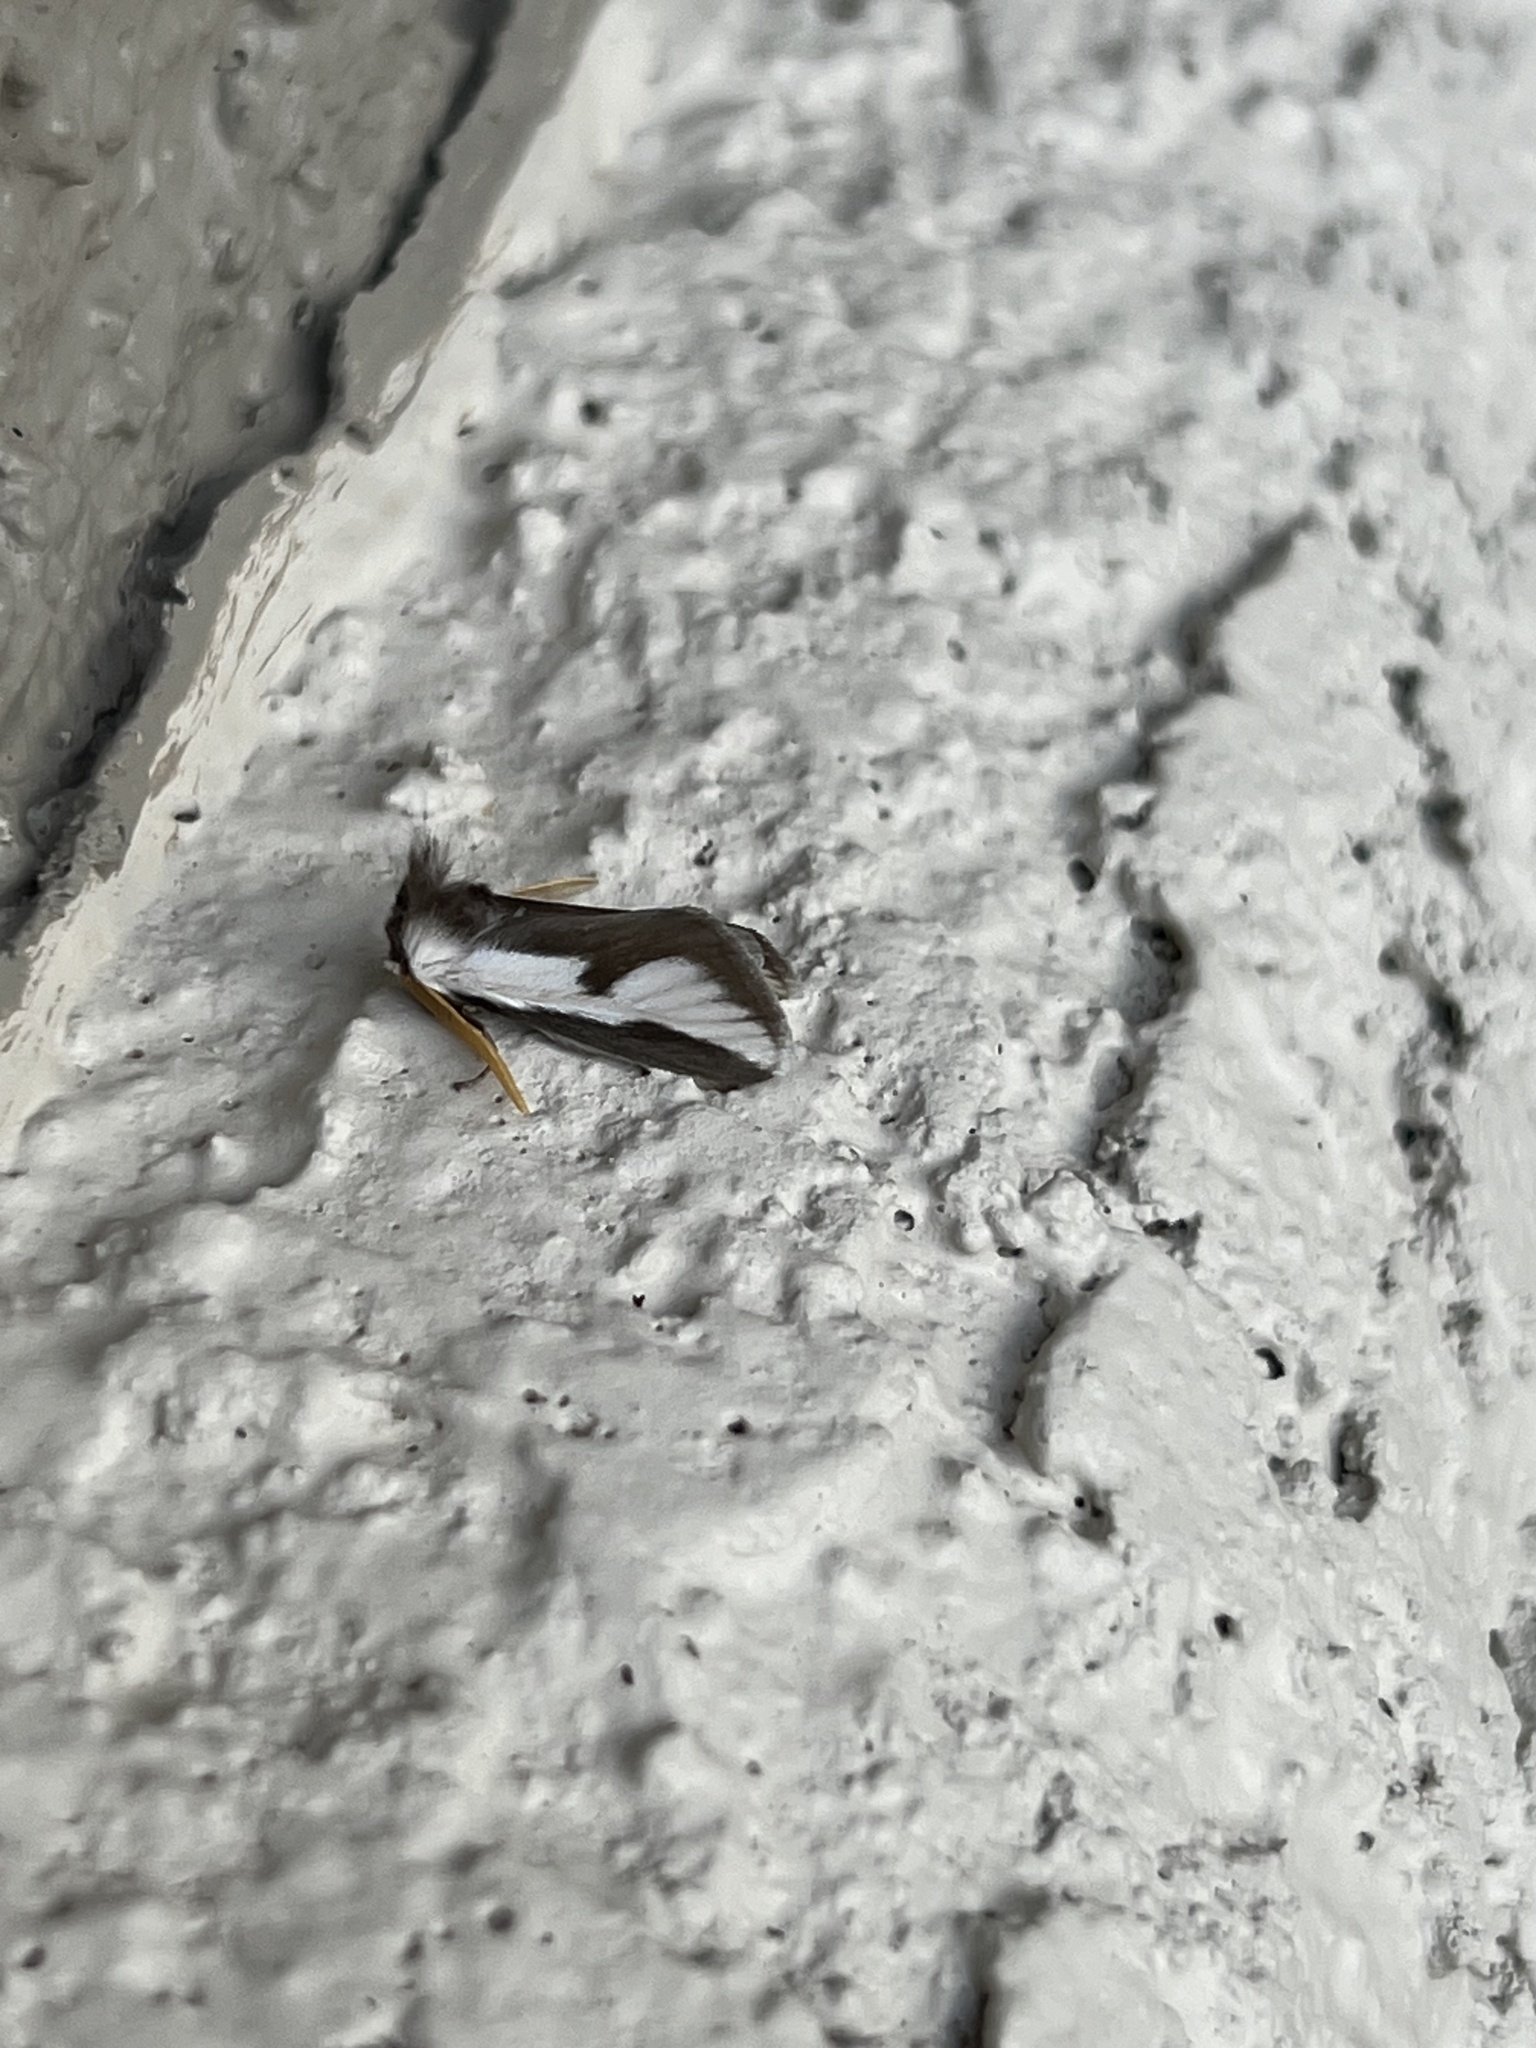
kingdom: Animalia
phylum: Arthropoda
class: Insecta
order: Lepidoptera
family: Megalopygidae
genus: Norape
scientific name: Norape tener
